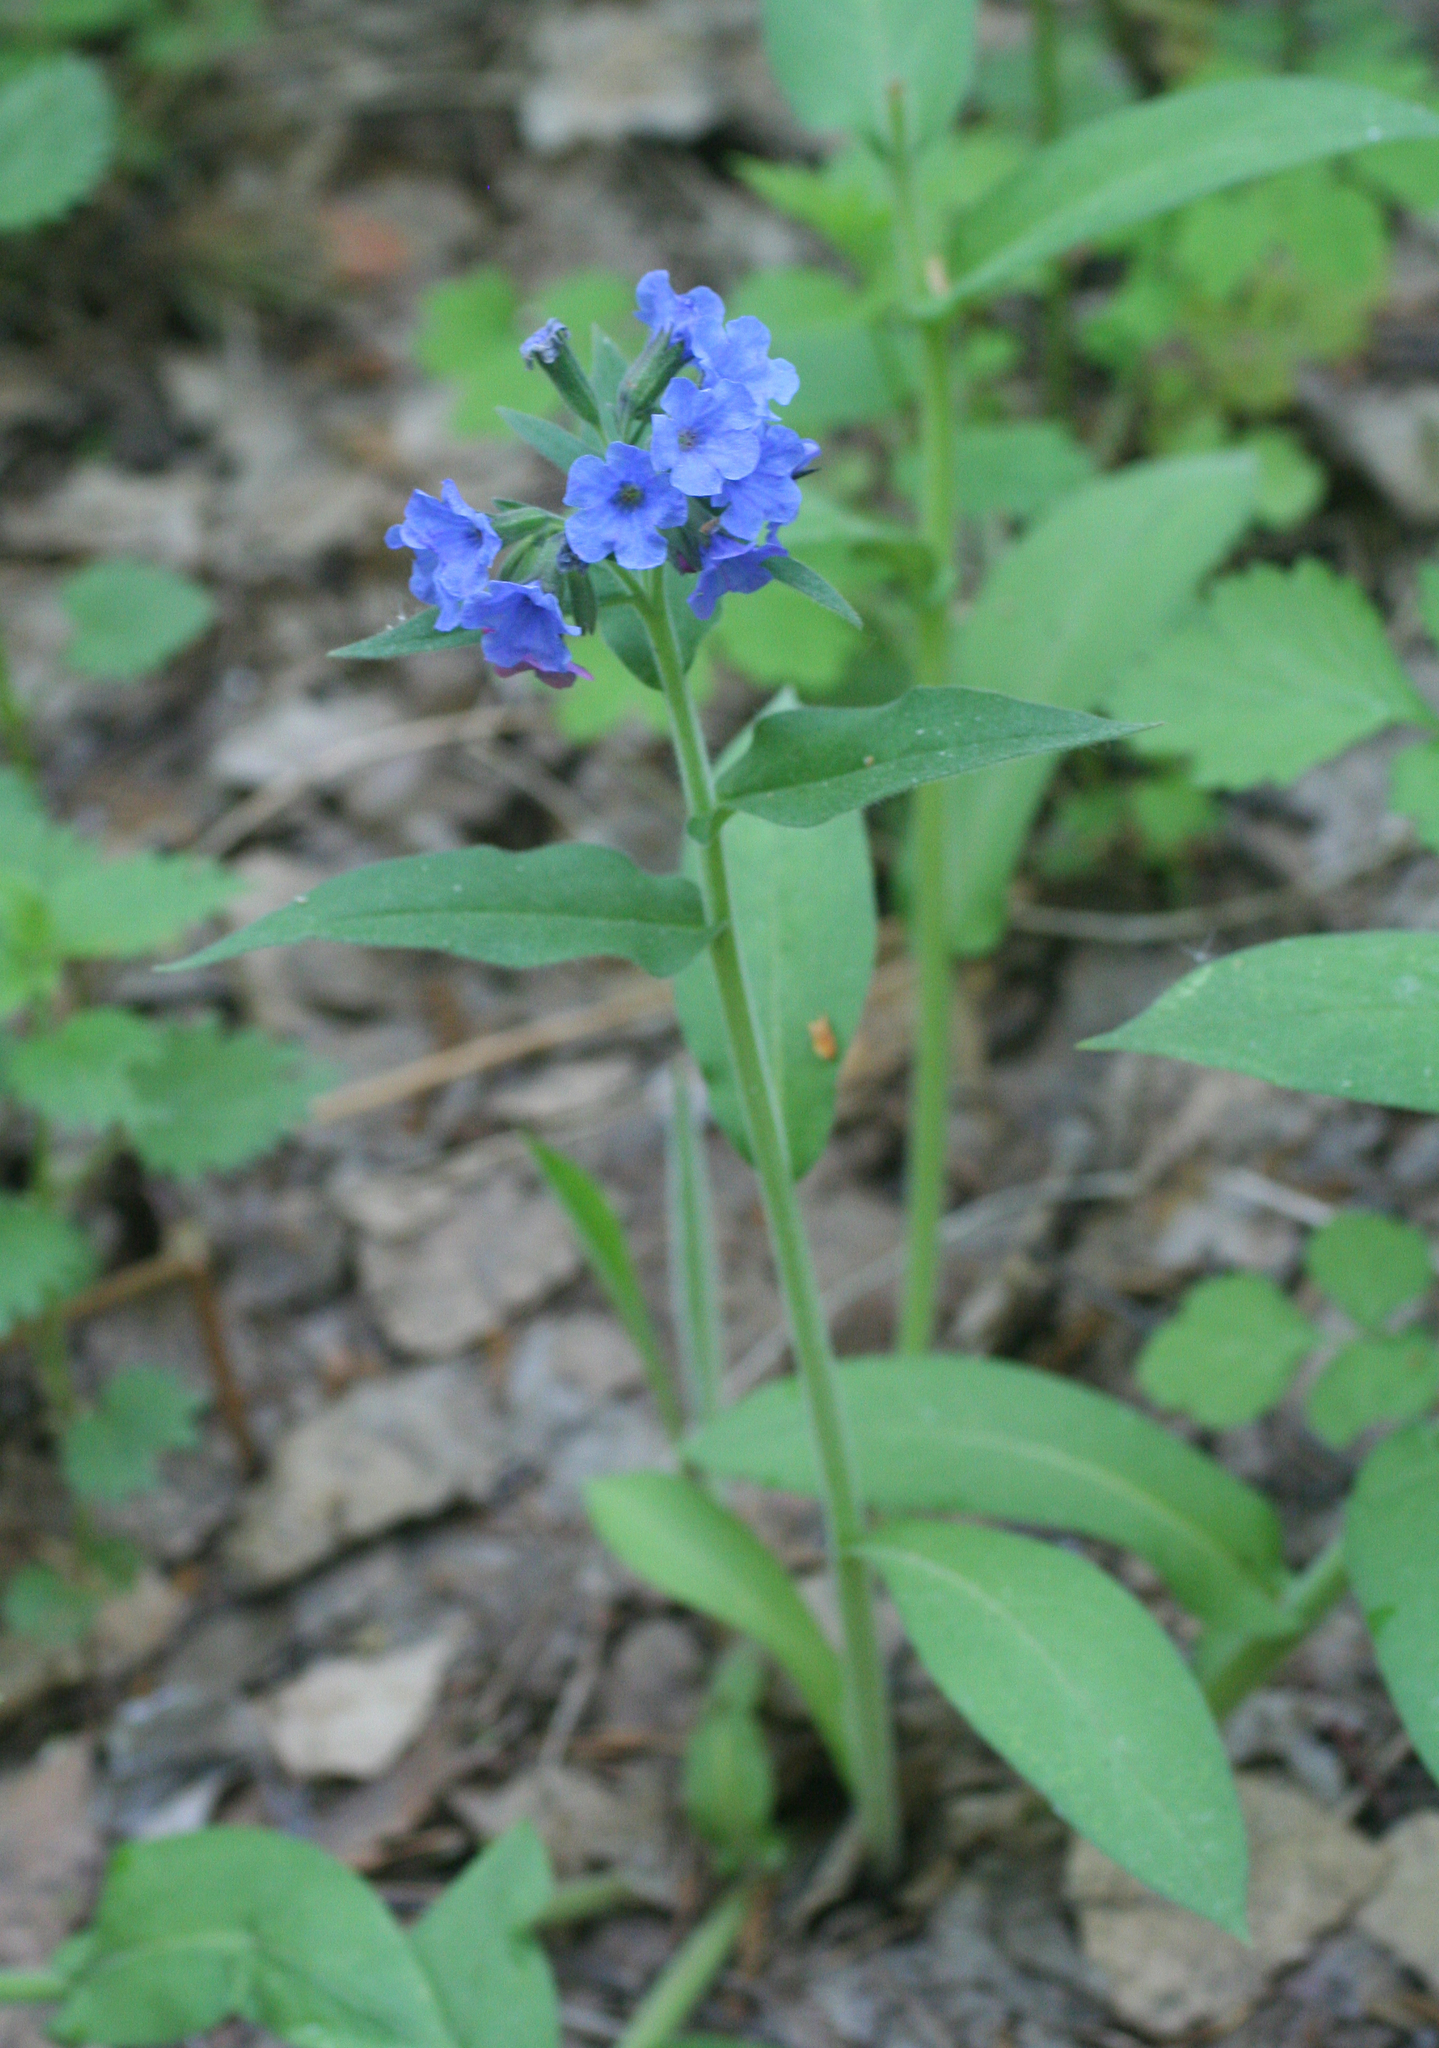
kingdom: Plantae
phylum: Tracheophyta
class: Magnoliopsida
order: Boraginales
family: Boraginaceae
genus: Pulmonaria
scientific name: Pulmonaria mollis
